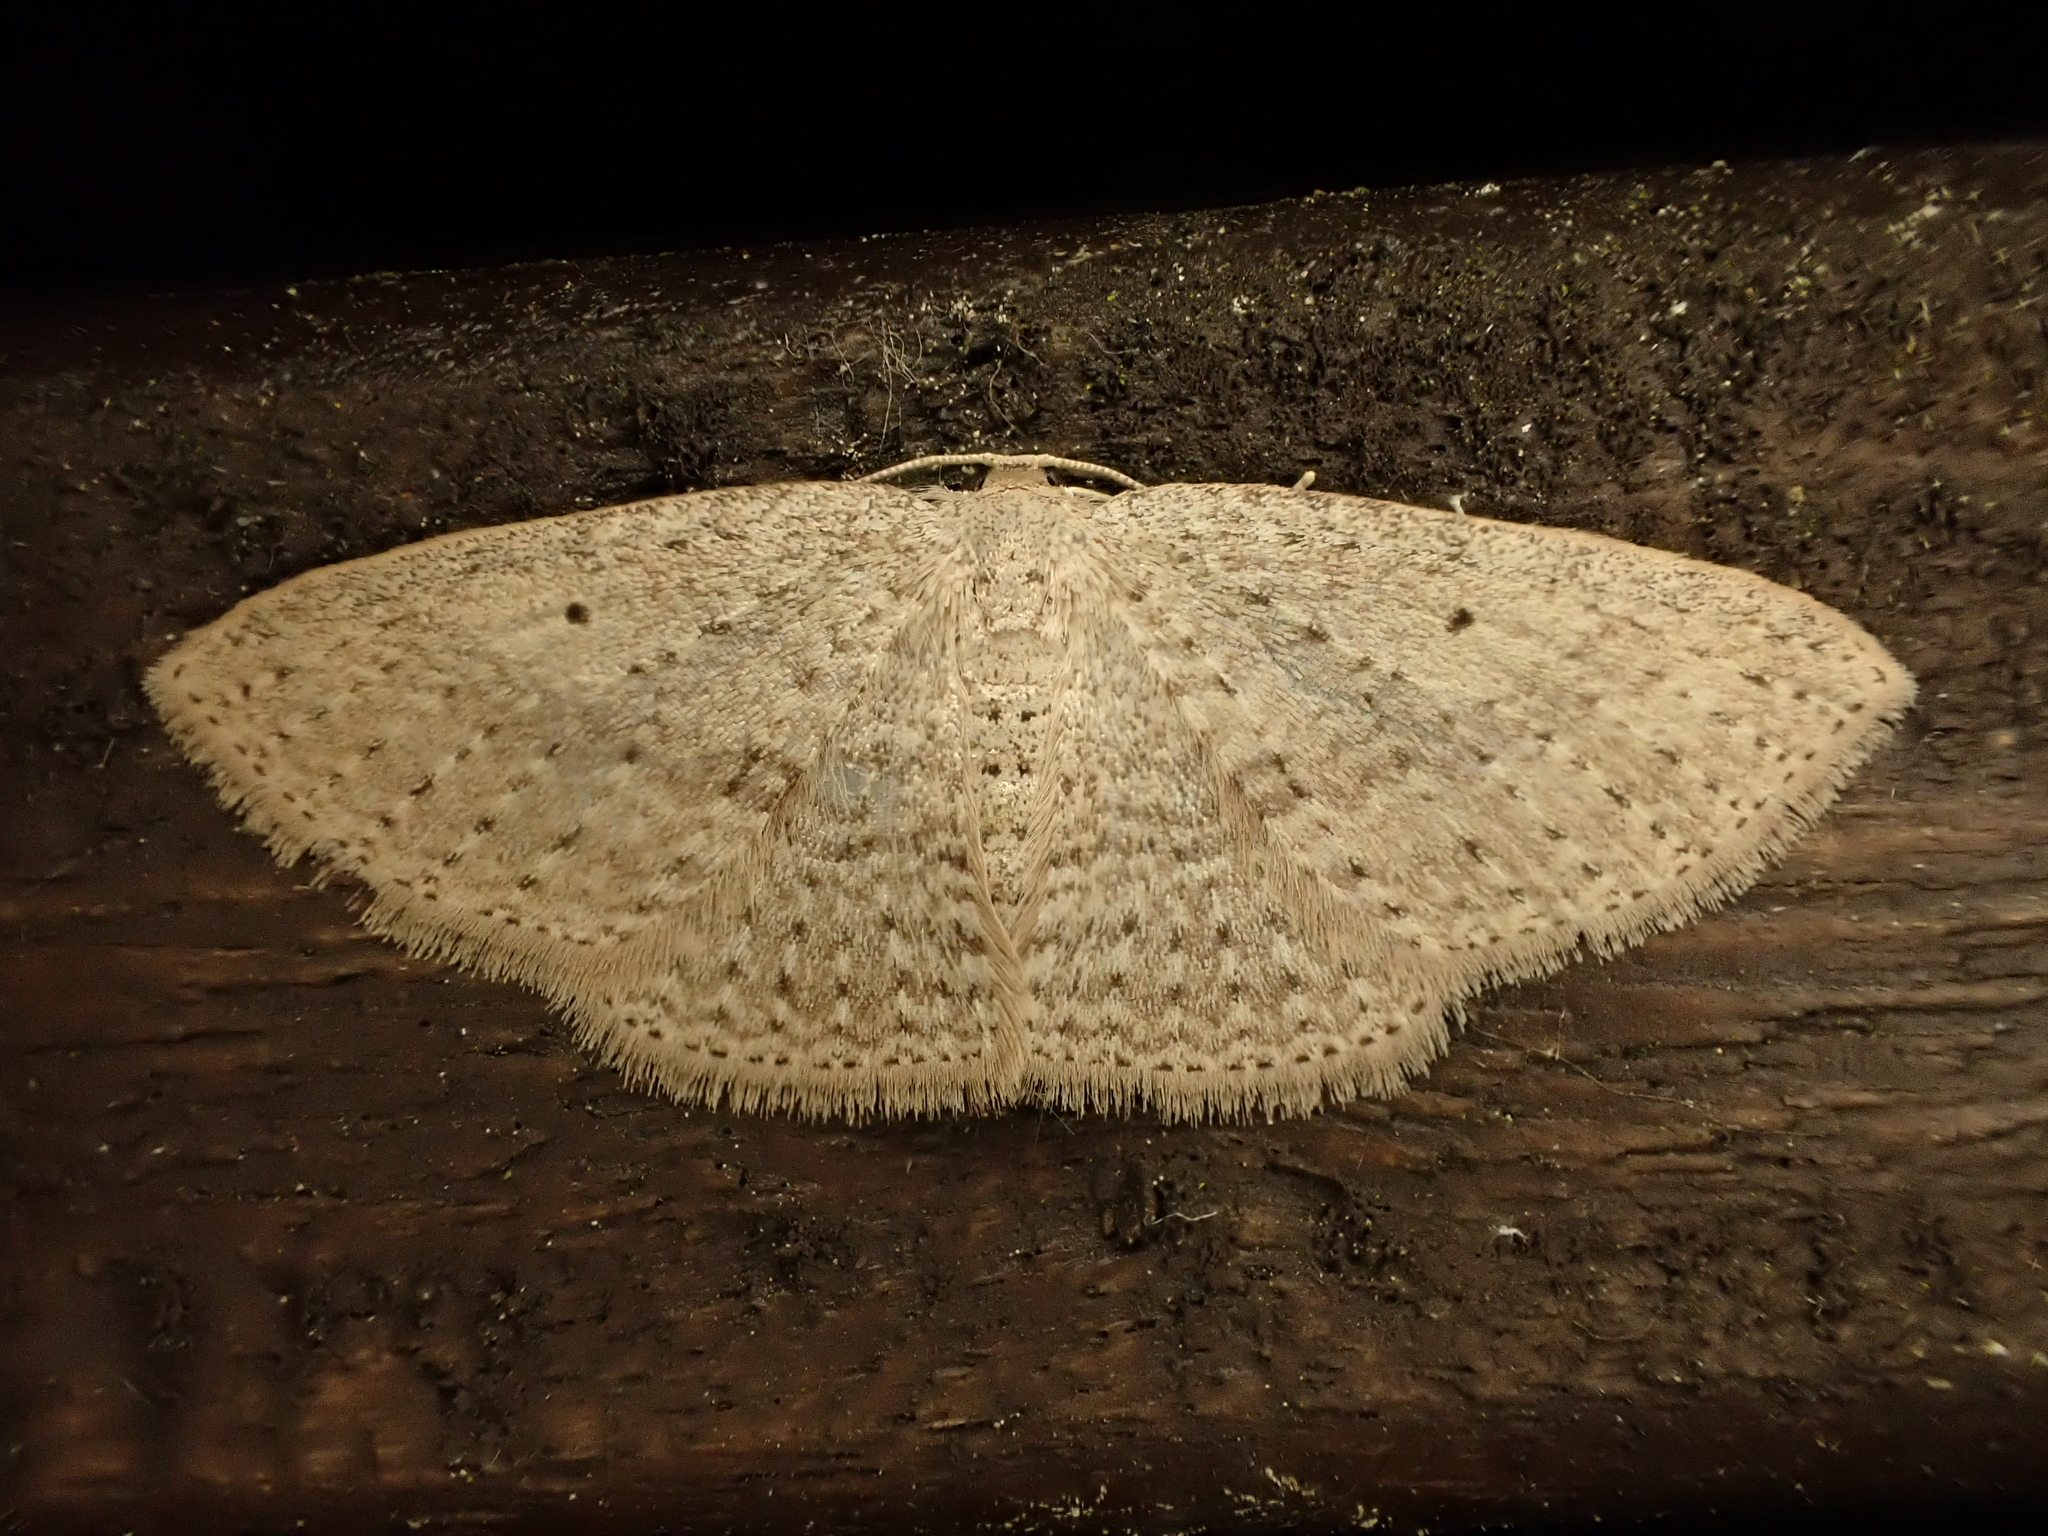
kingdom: Animalia
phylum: Arthropoda
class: Insecta
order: Lepidoptera
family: Geometridae
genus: Poecilasthena
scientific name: Poecilasthena schistaria
